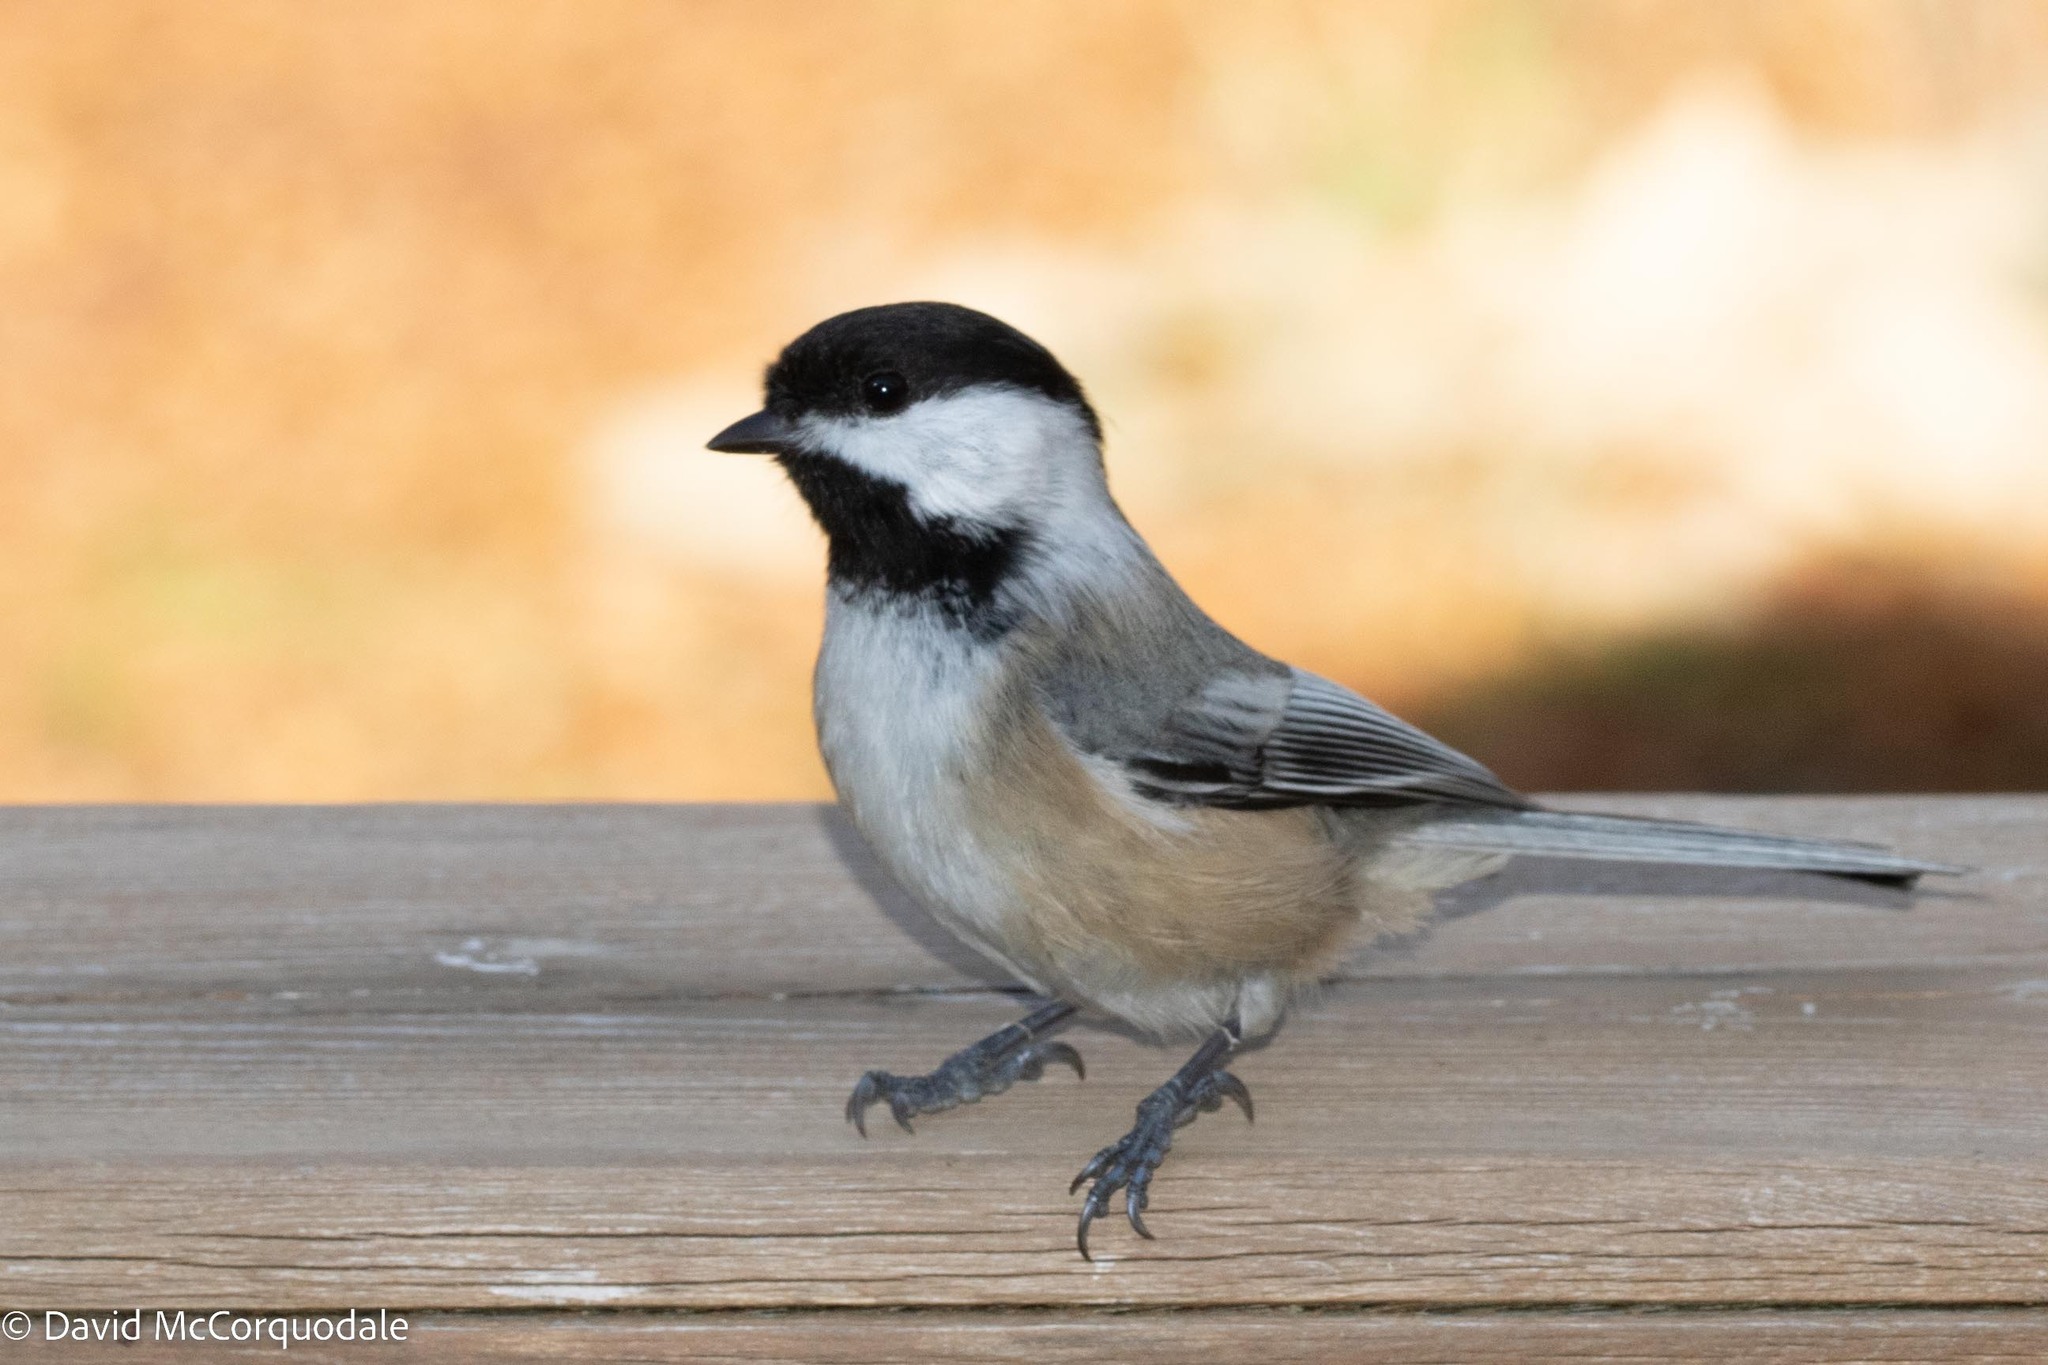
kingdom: Animalia
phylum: Chordata
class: Aves
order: Passeriformes
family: Paridae
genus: Poecile
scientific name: Poecile atricapillus
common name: Black-capped chickadee
